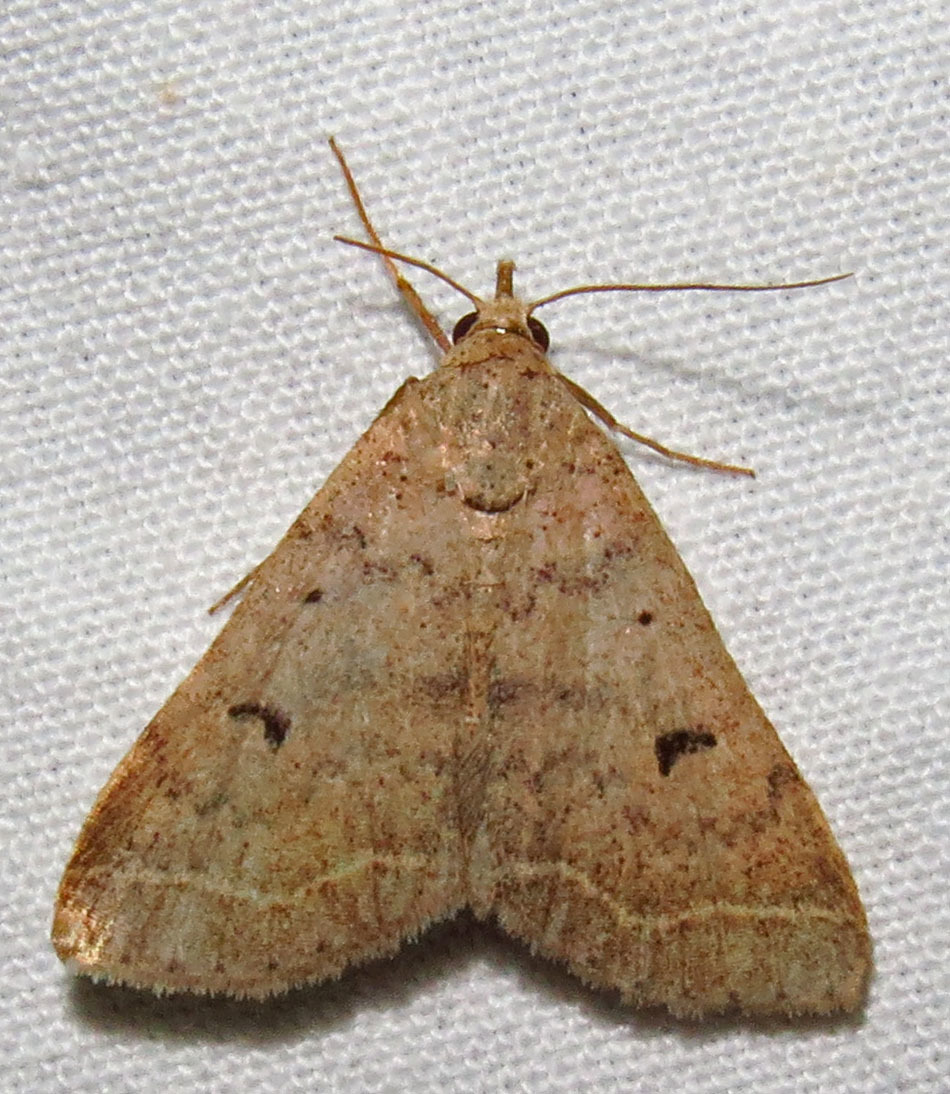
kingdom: Animalia
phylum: Arthropoda
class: Insecta
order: Lepidoptera
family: Erebidae
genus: Bleptina
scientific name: Bleptina caradrinalis
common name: Bent-winged owlet
